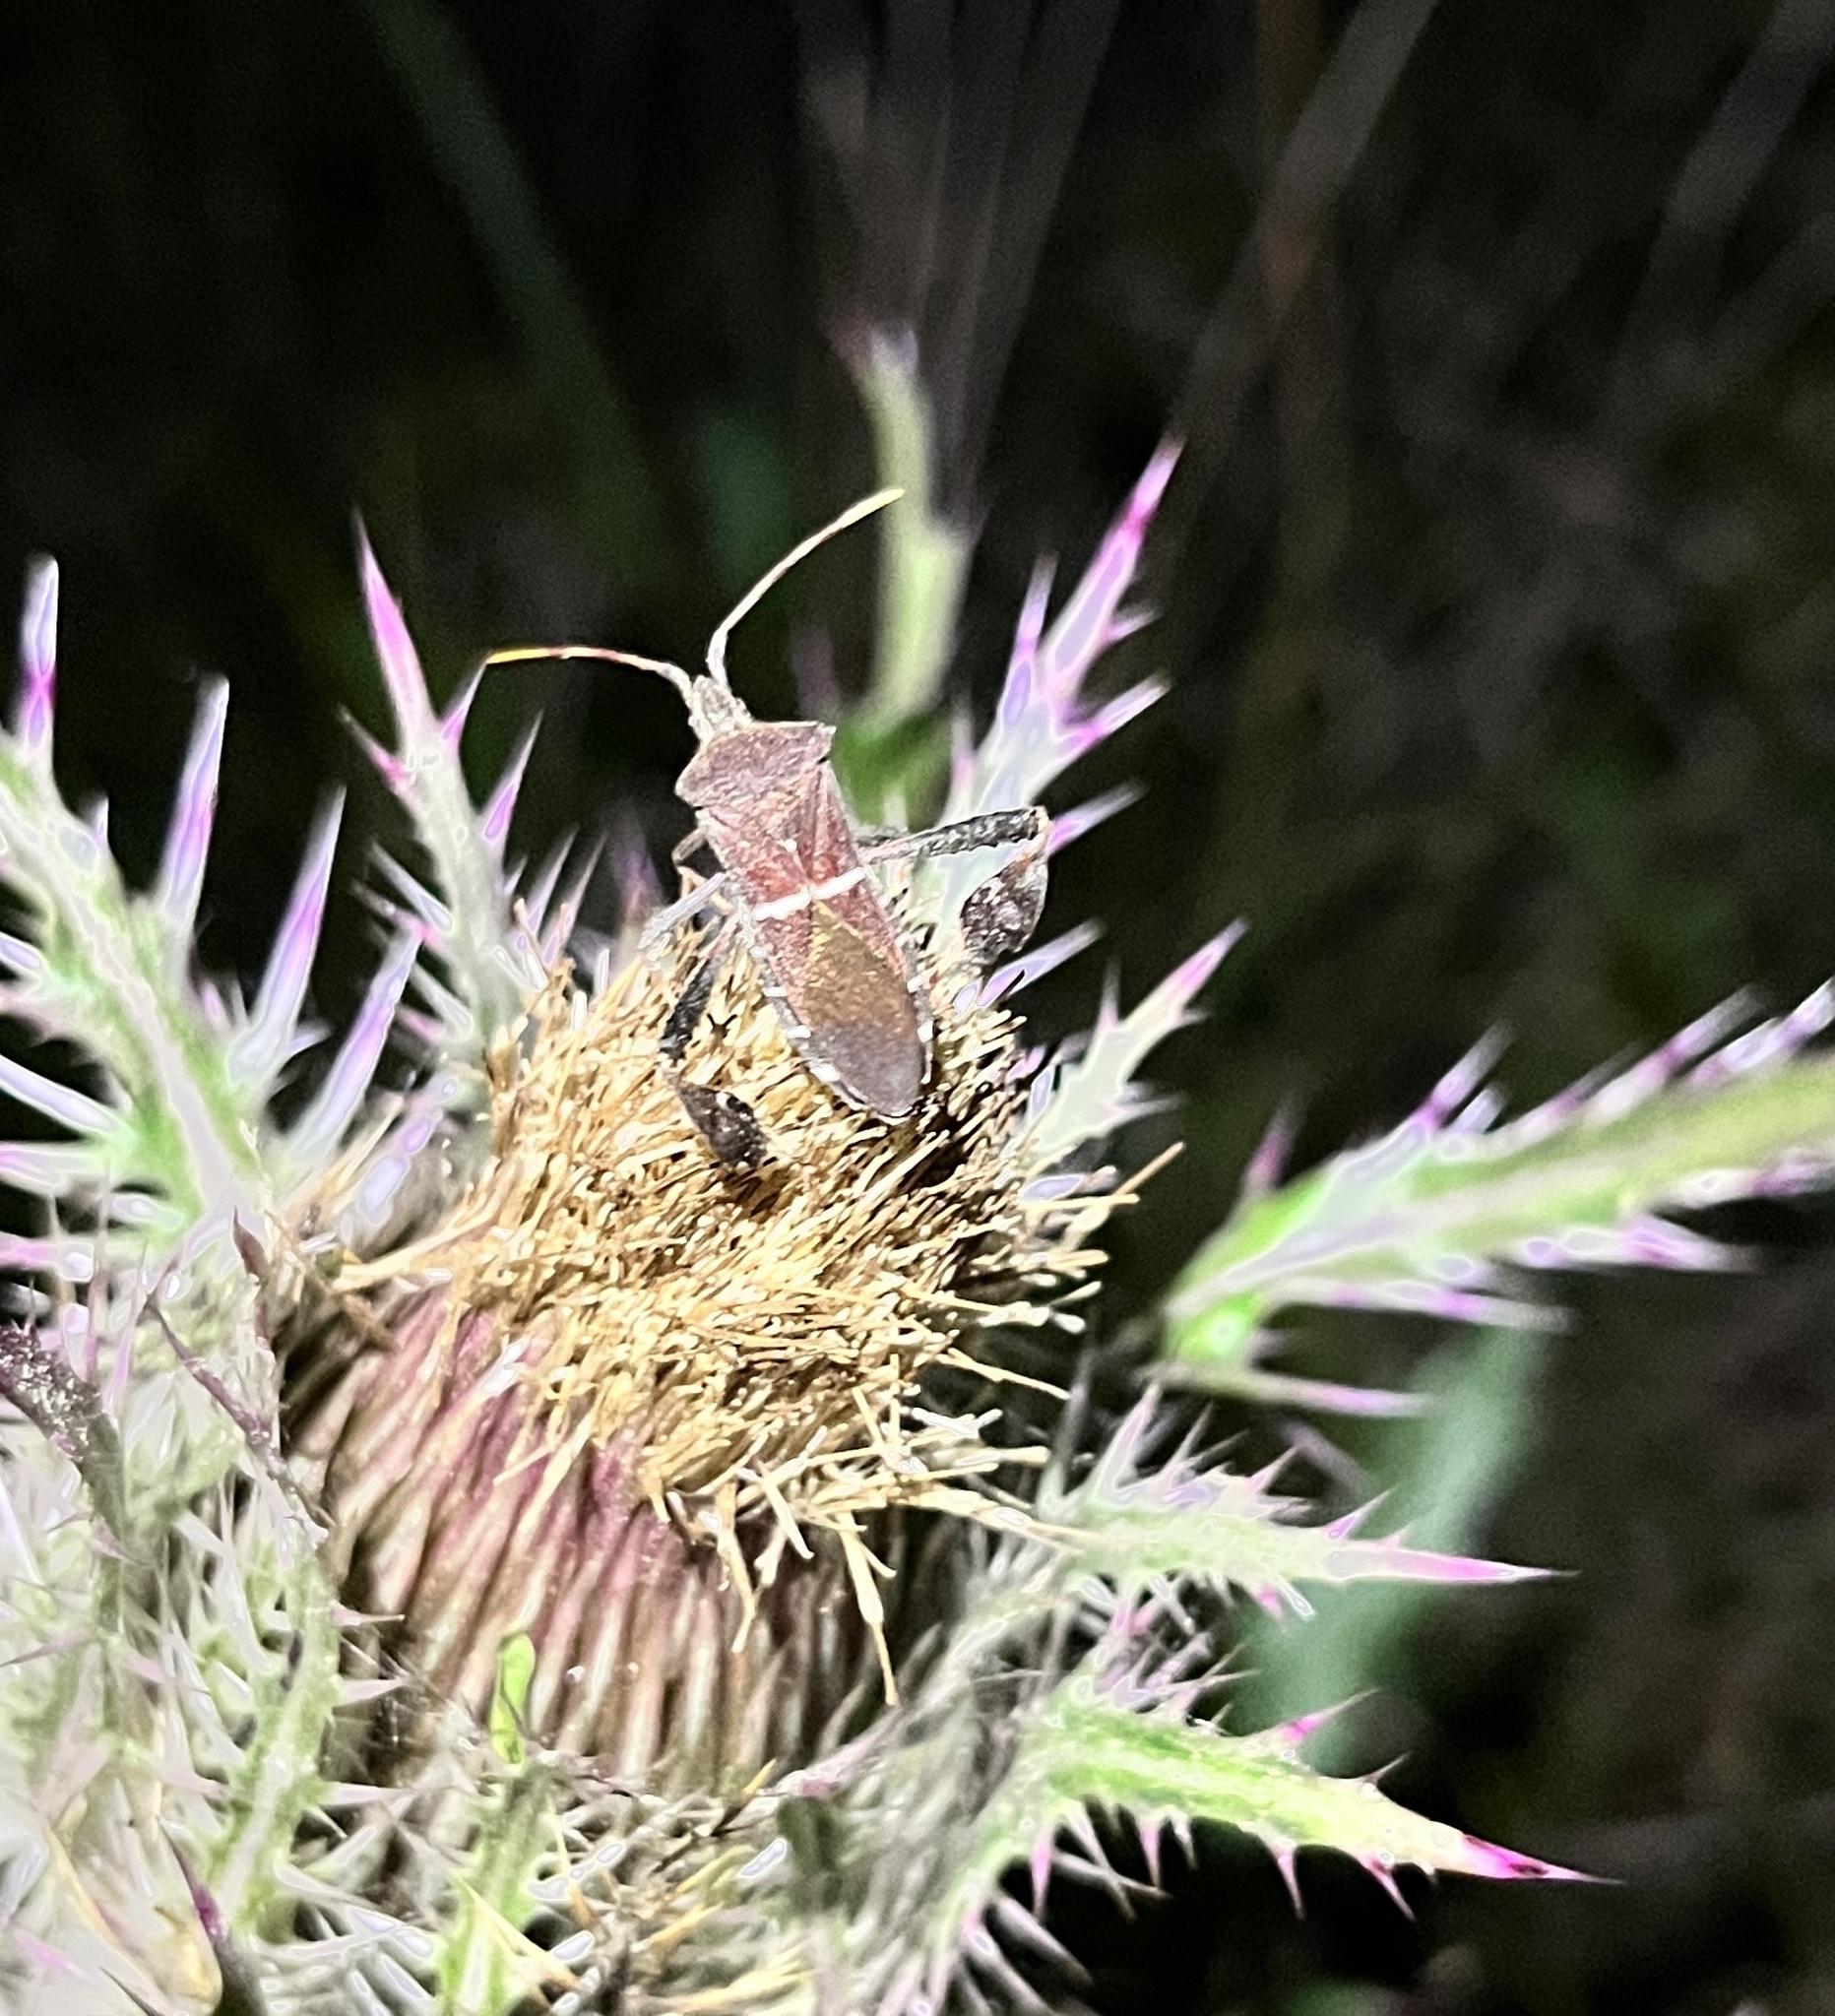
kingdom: Animalia
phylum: Arthropoda
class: Insecta
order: Hemiptera
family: Coreidae
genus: Leptoglossus
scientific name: Leptoglossus phyllopus
